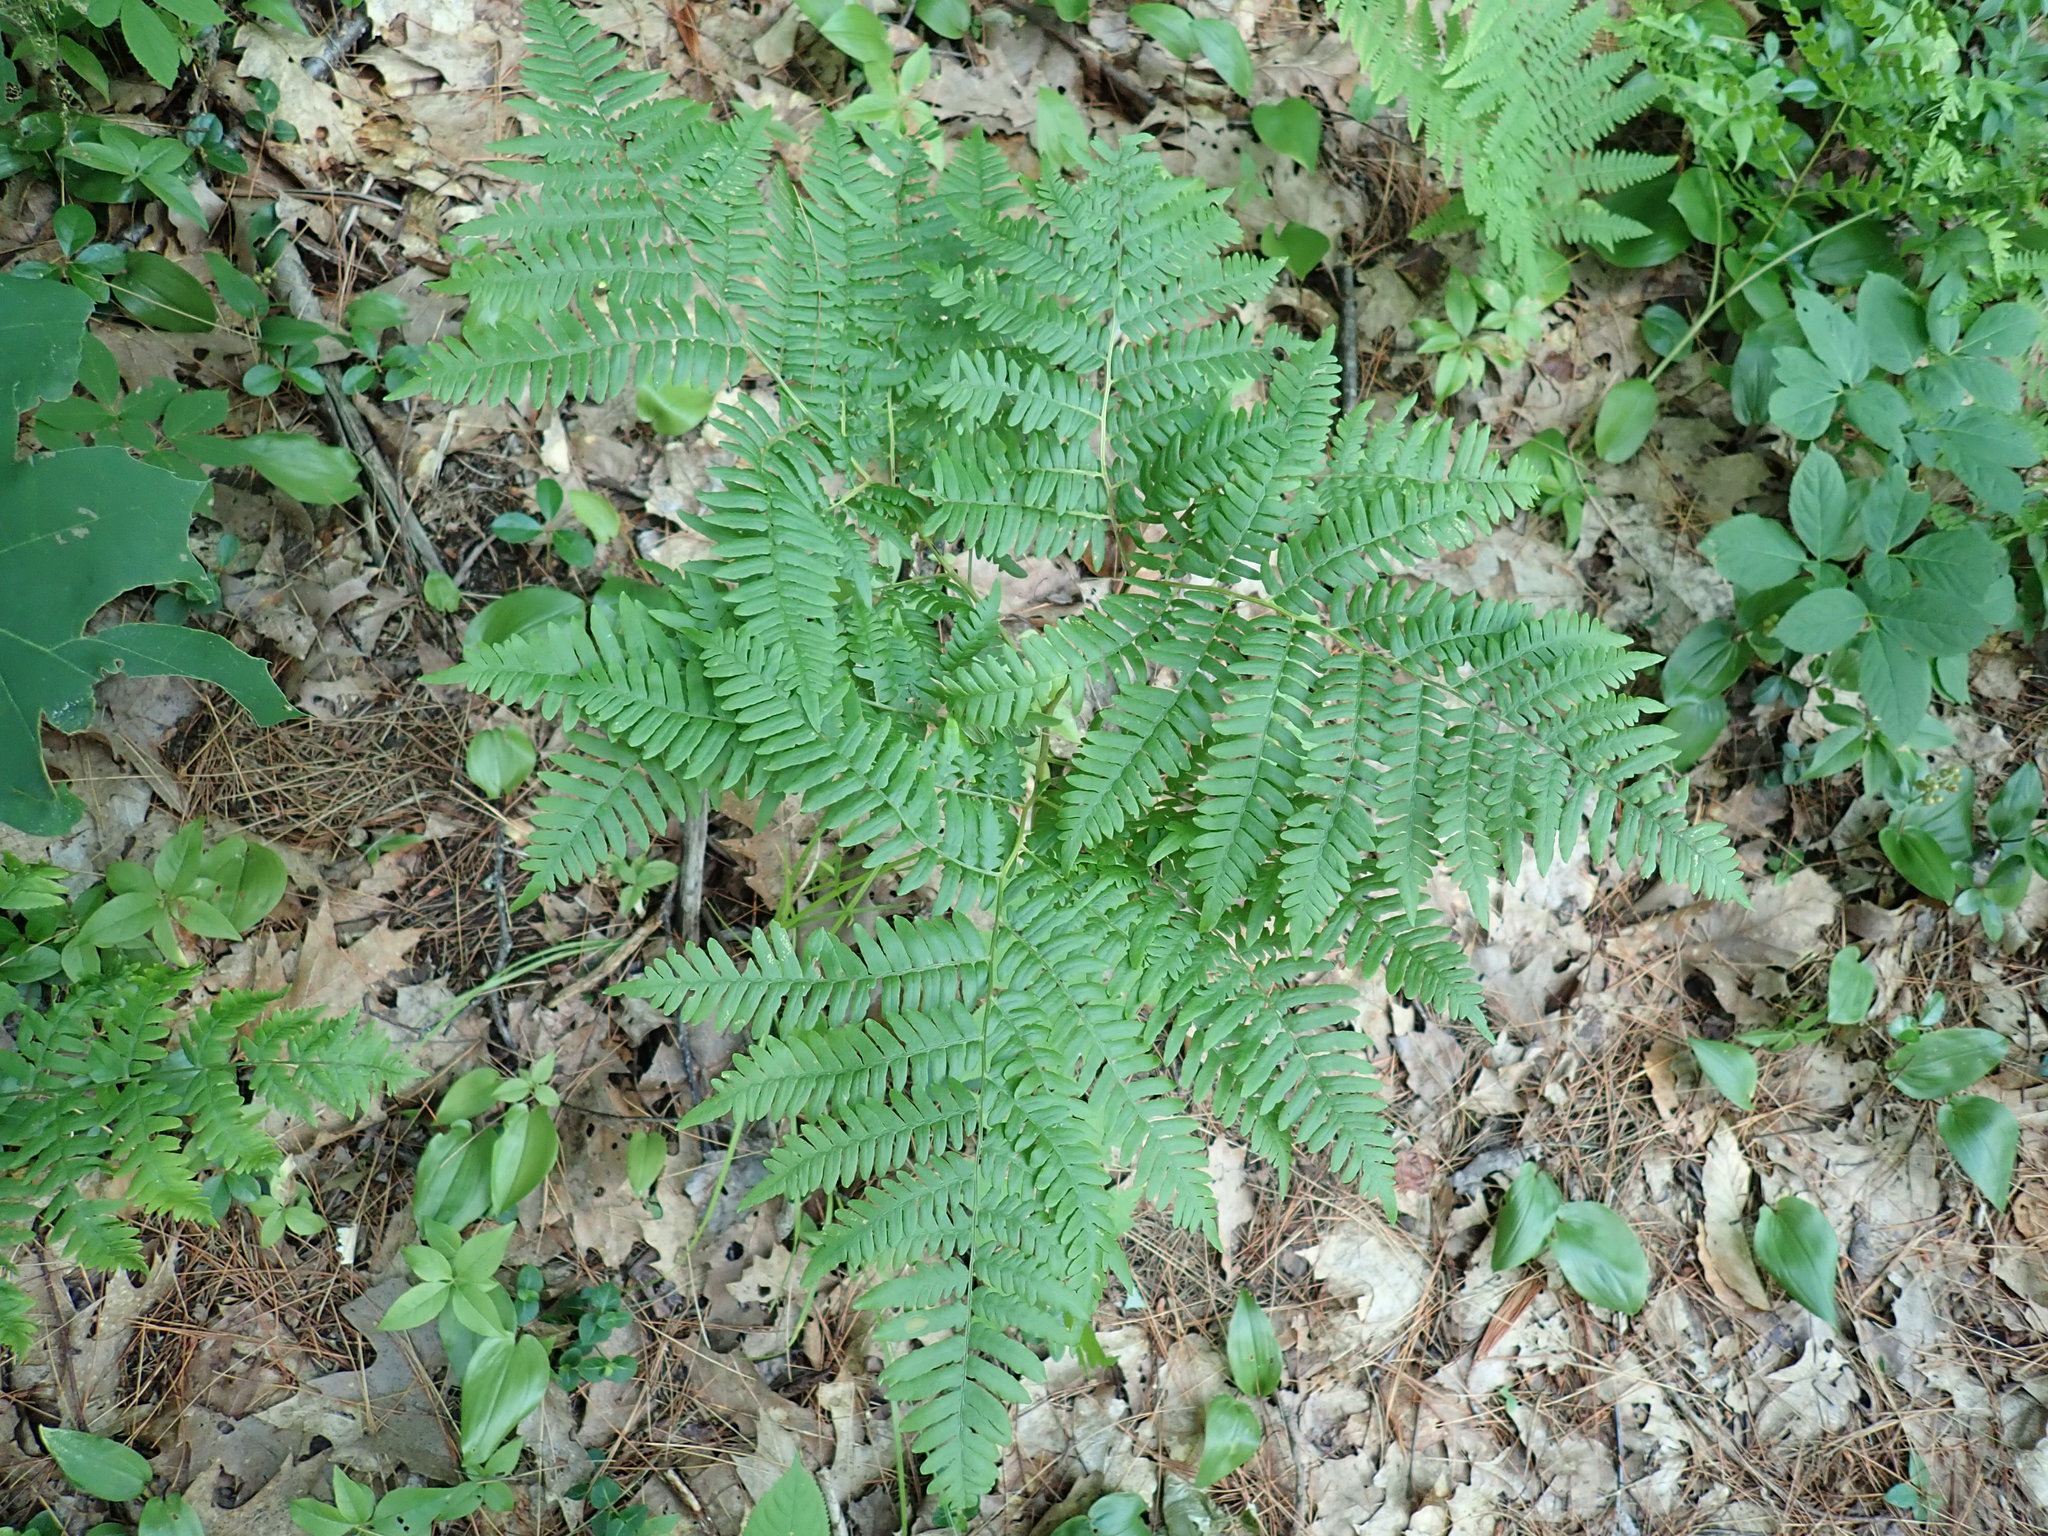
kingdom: Plantae
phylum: Tracheophyta
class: Polypodiopsida
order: Polypodiales
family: Dennstaedtiaceae
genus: Pteridium
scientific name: Pteridium aquilinum
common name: Bracken
